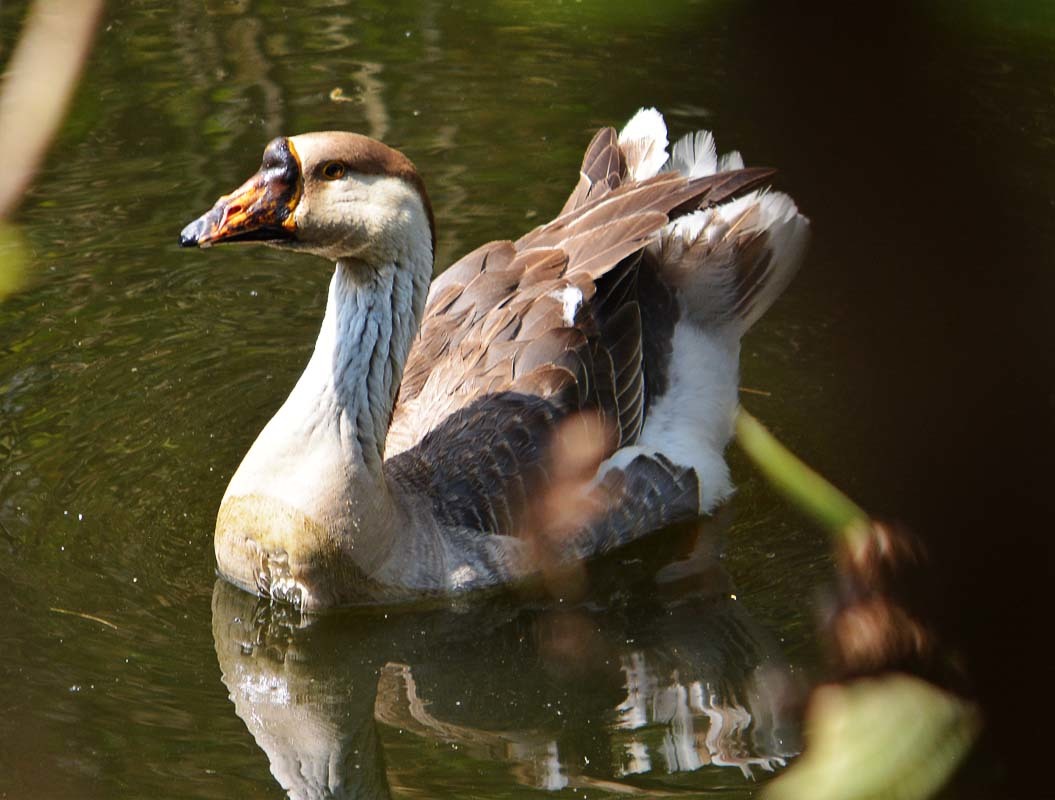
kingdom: Animalia
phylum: Chordata
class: Aves
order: Anseriformes
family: Anatidae
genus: Anser
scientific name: Anser
